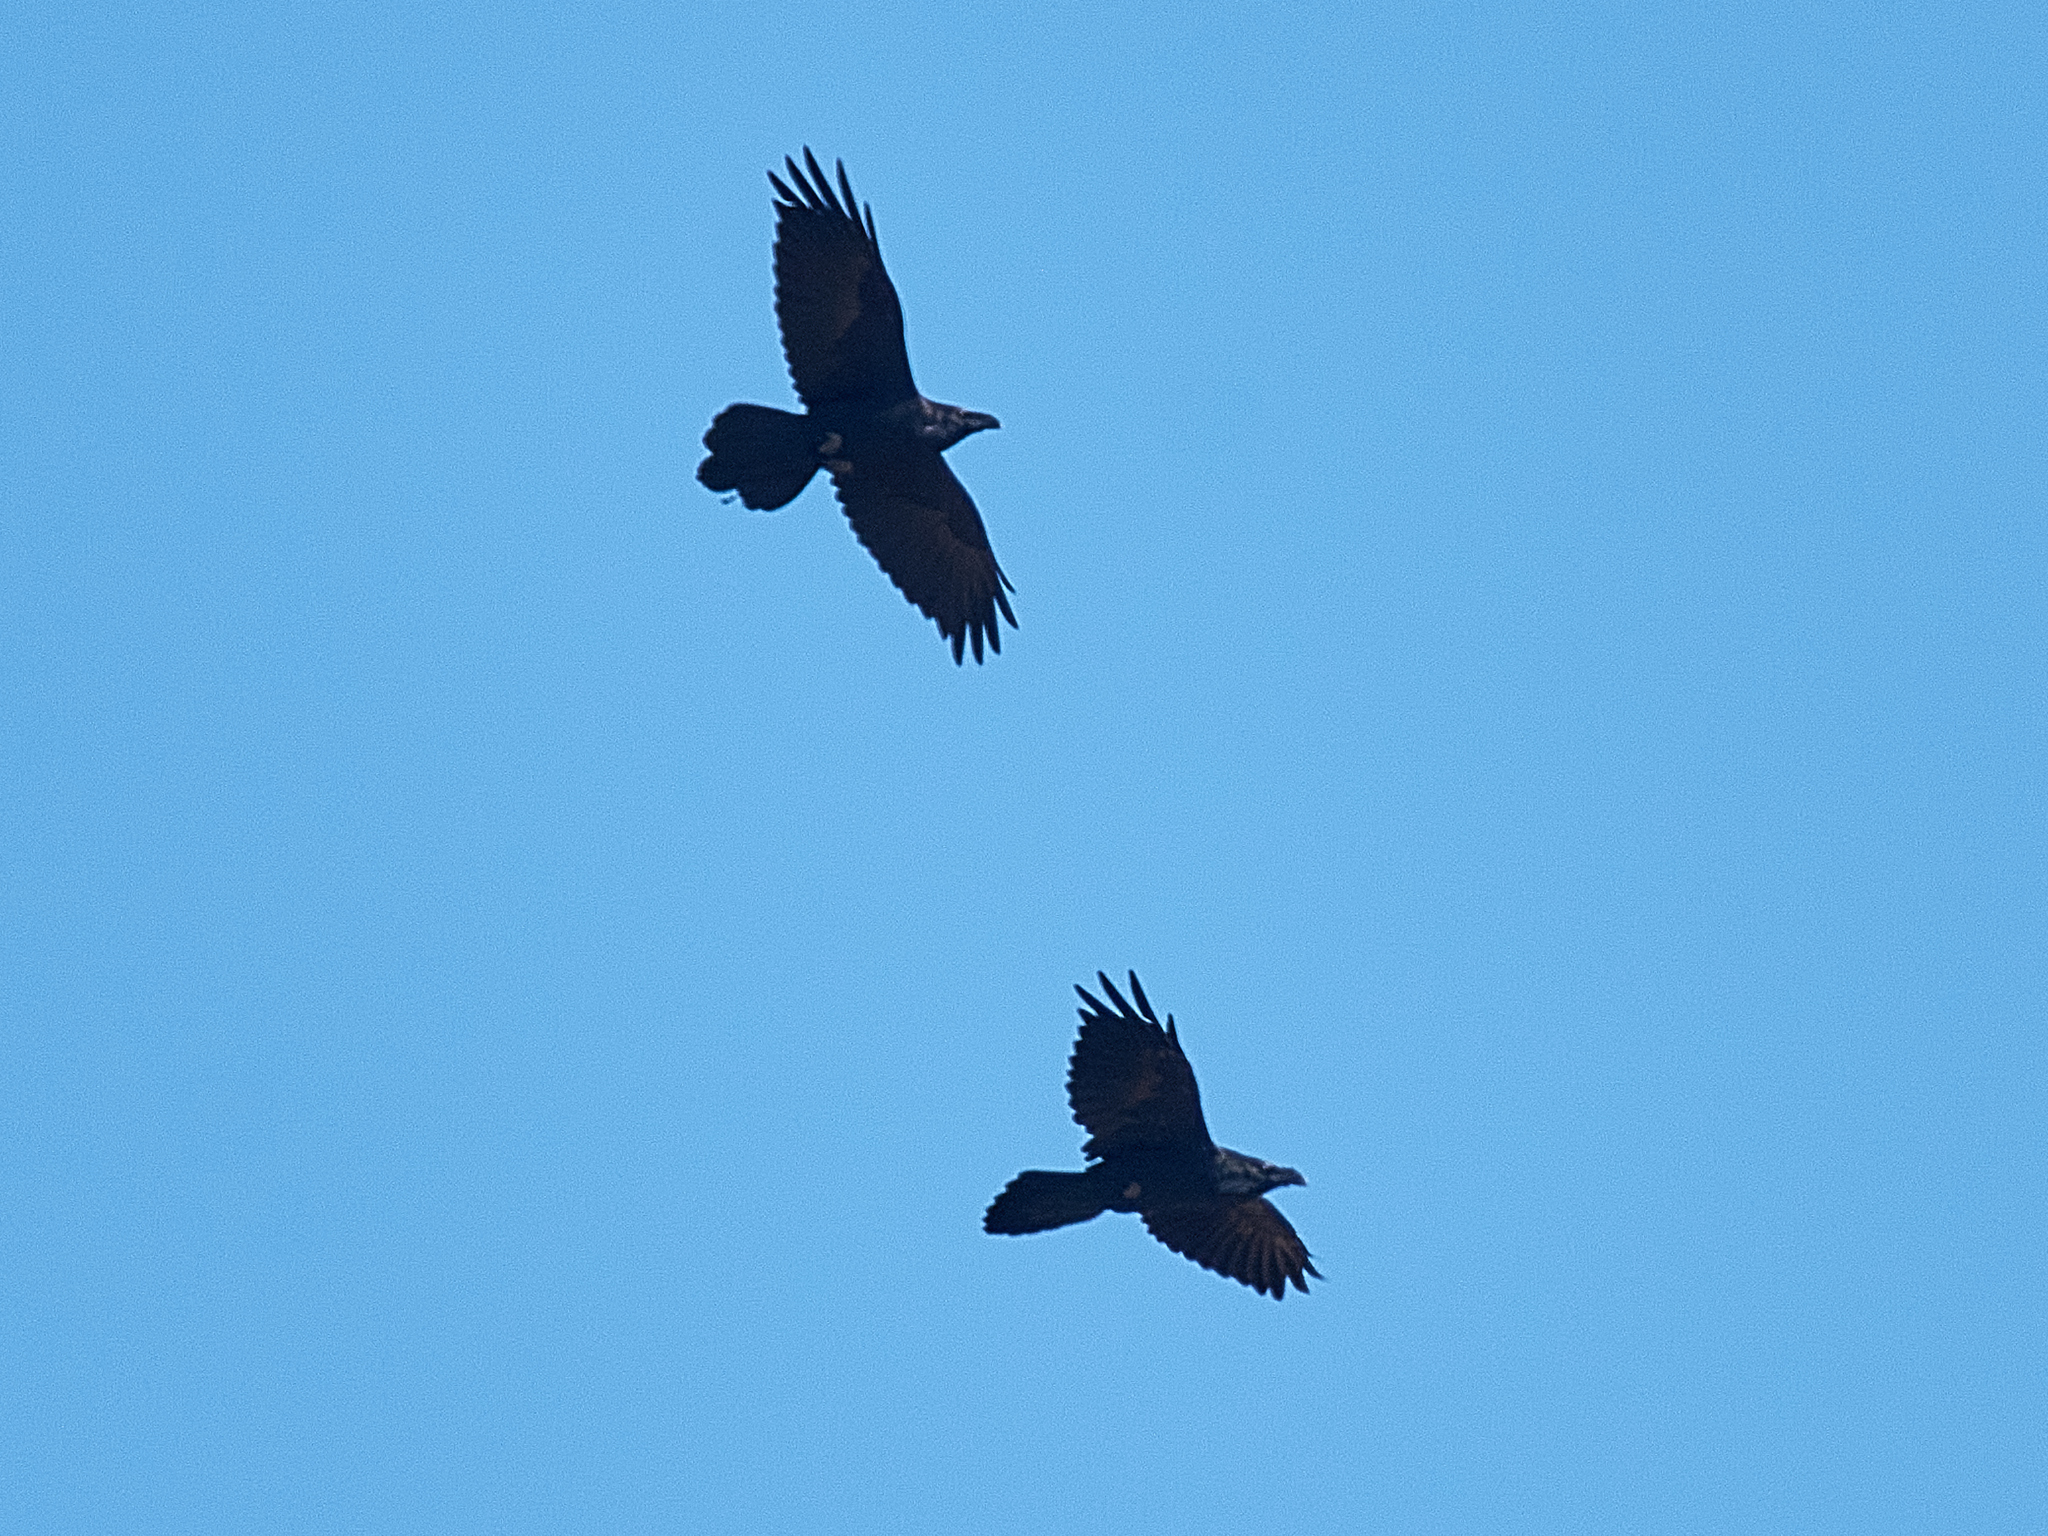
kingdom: Animalia
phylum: Chordata
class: Aves
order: Passeriformes
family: Corvidae
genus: Corvus
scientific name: Corvus corax
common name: Common raven
